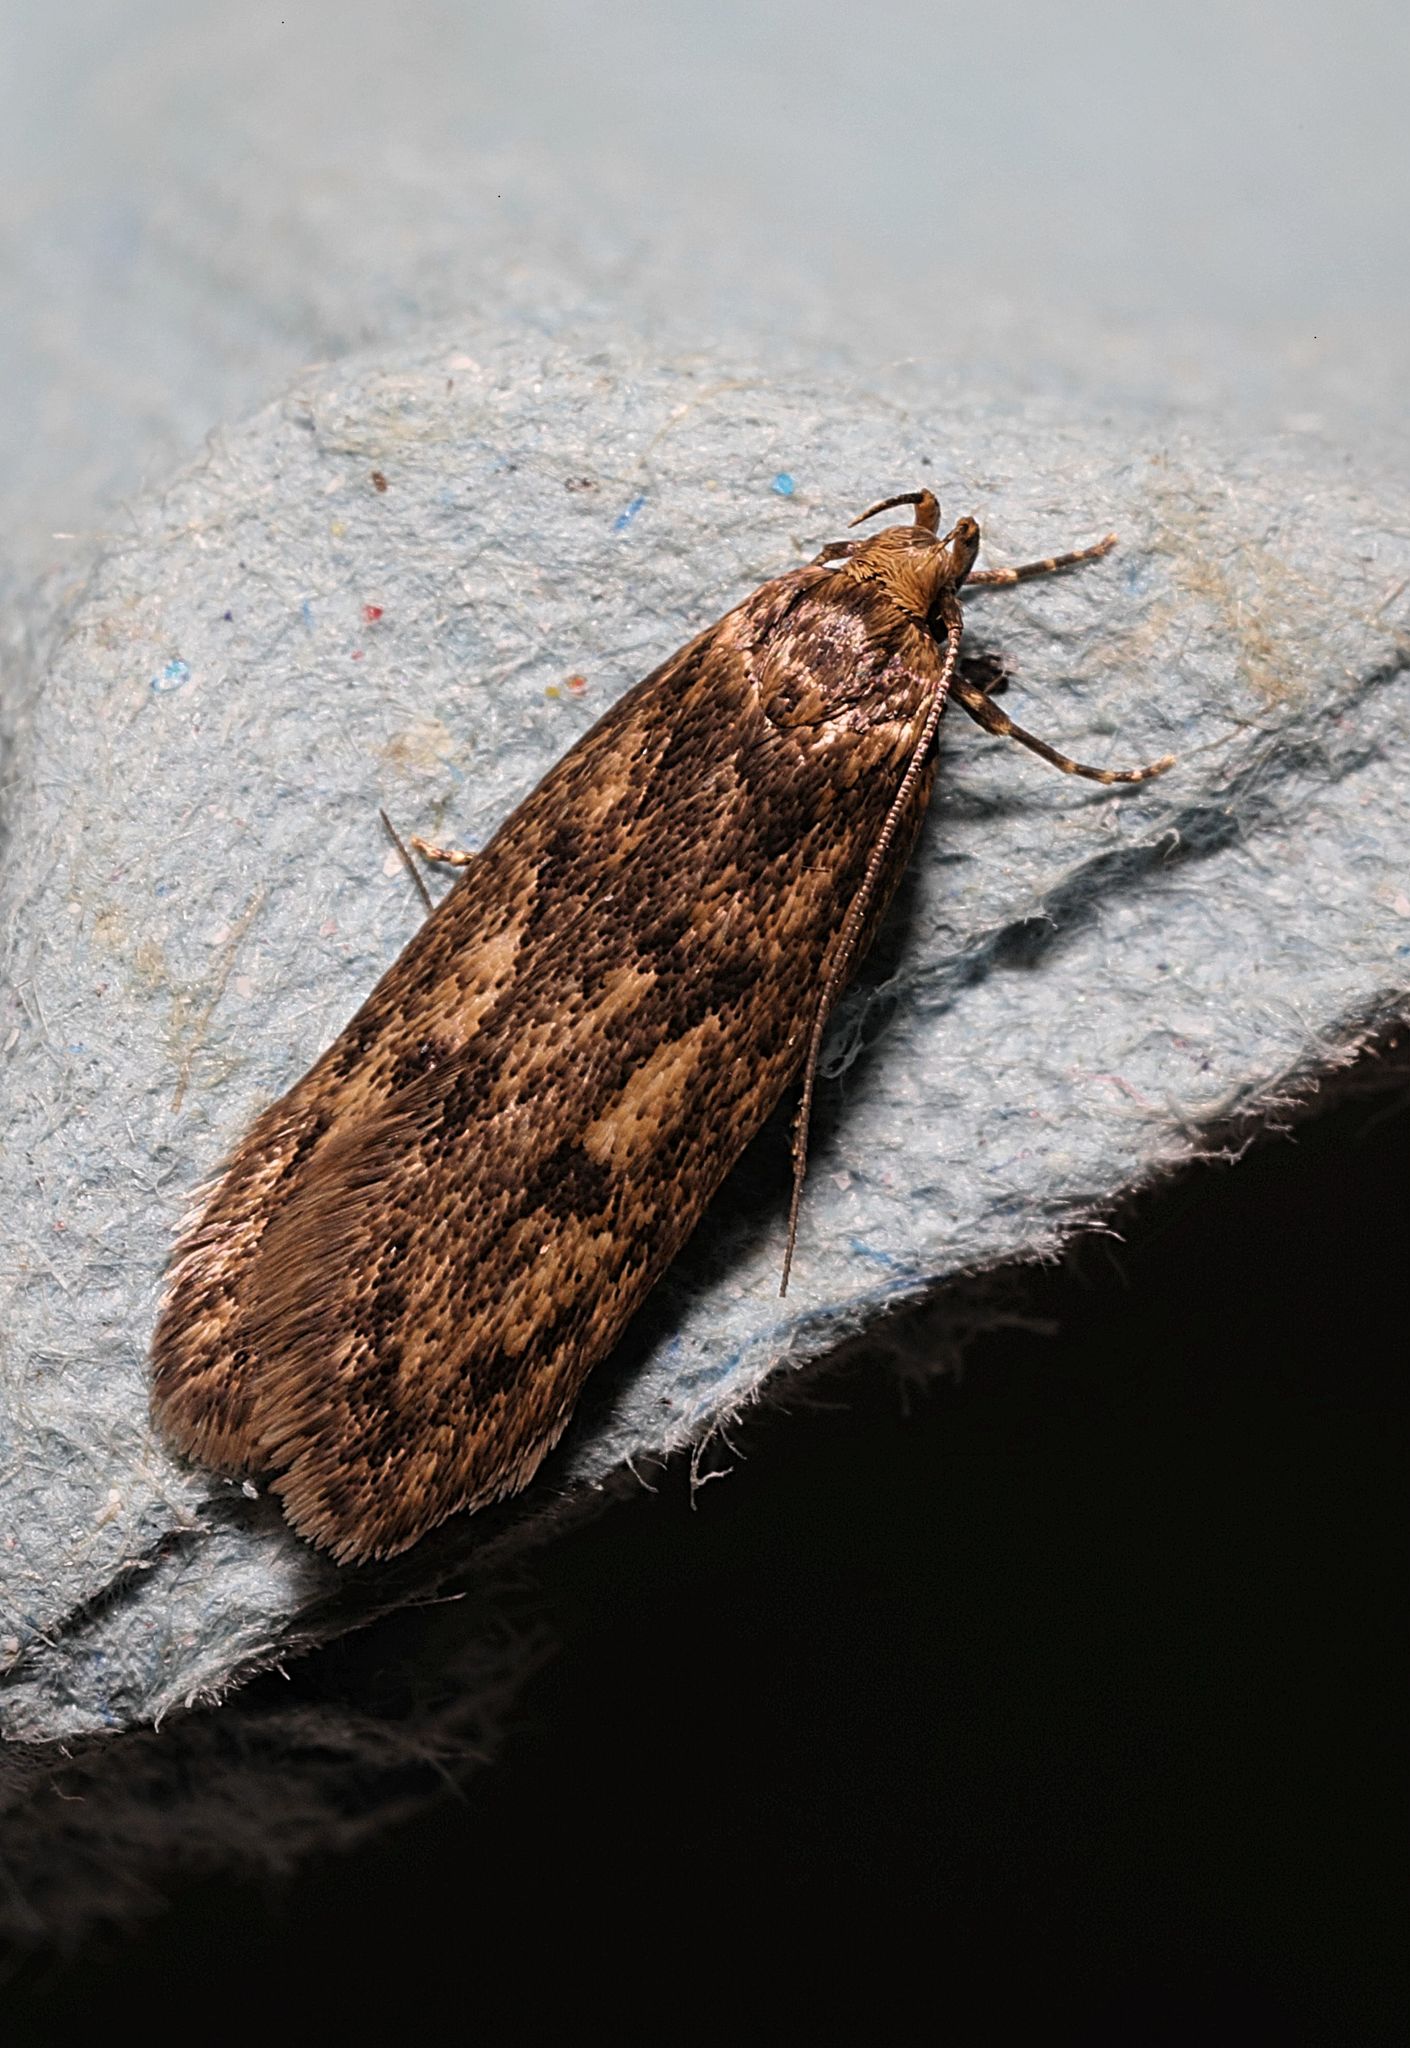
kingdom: Animalia
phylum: Arthropoda
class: Insecta
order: Lepidoptera
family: Oecophoridae
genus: Hofmannophila
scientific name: Hofmannophila pseudospretella
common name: Brown house moth
